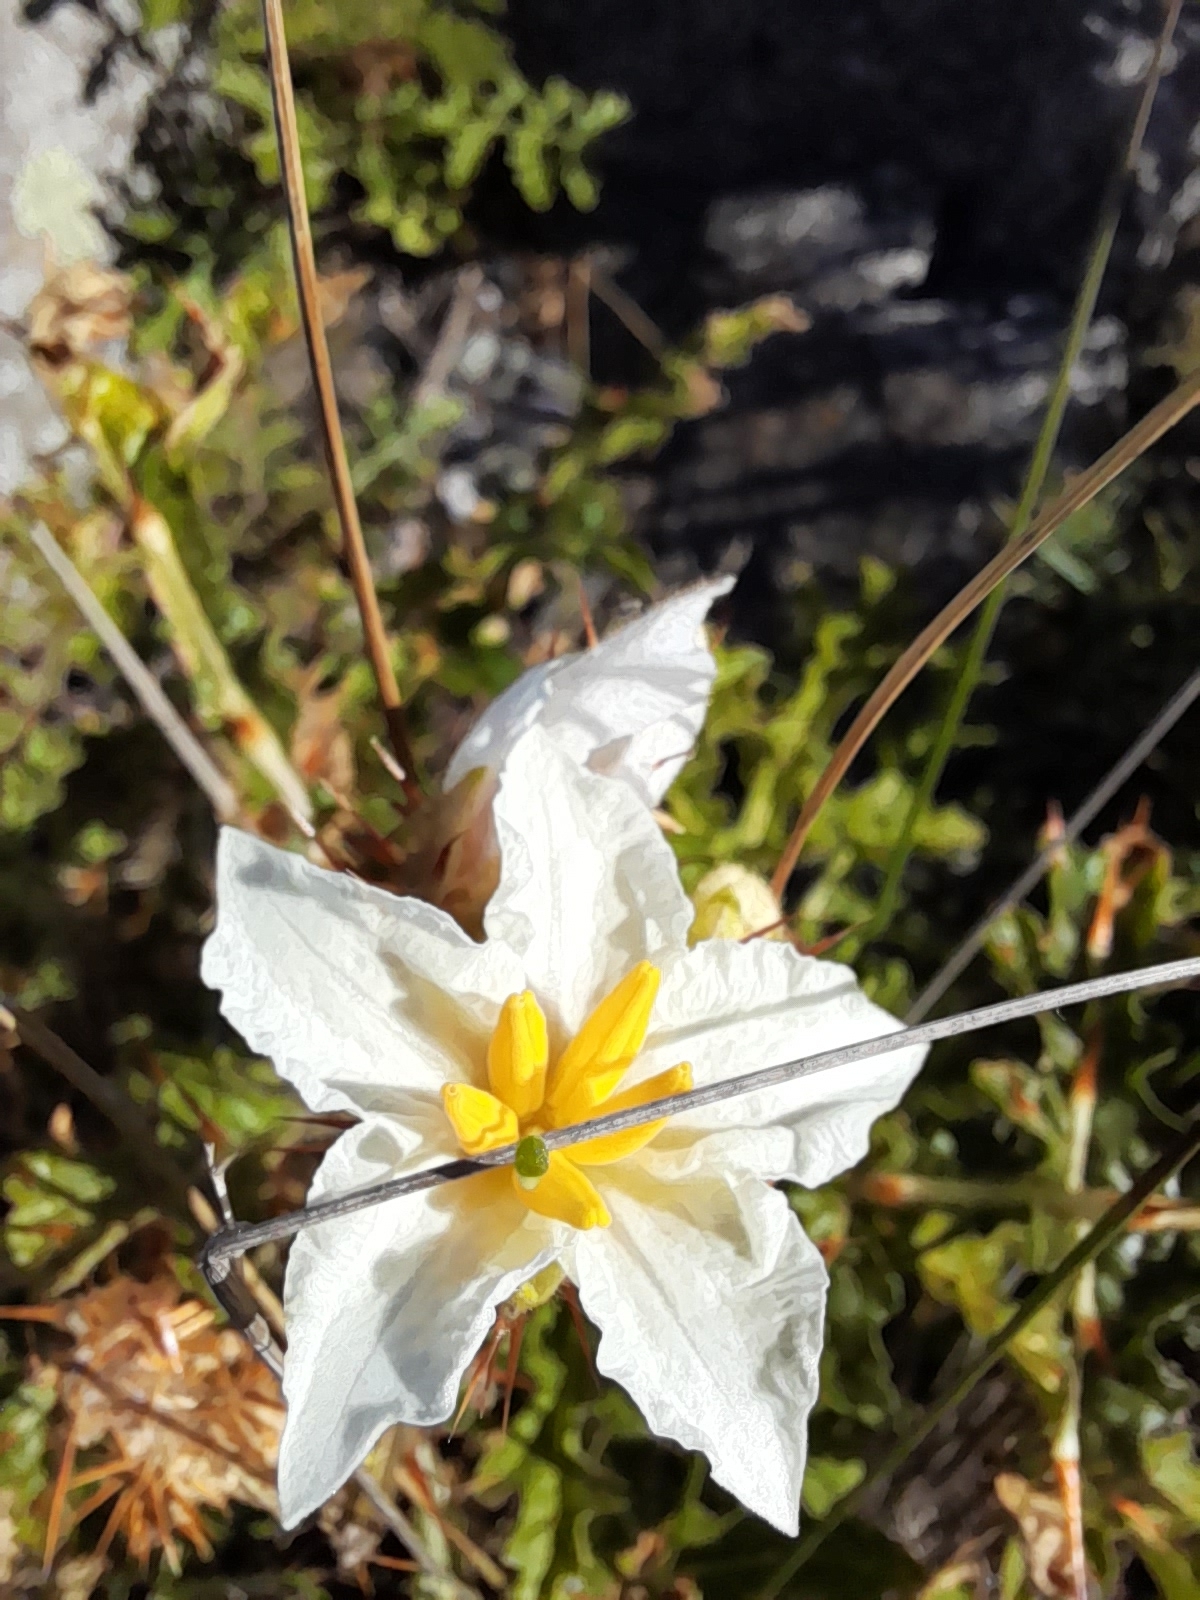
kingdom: Plantae
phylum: Tracheophyta
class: Magnoliopsida
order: Solanales
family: Solanaceae
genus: Solanum
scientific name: Solanum sisymbriifolium
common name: Red buffalo-bur
